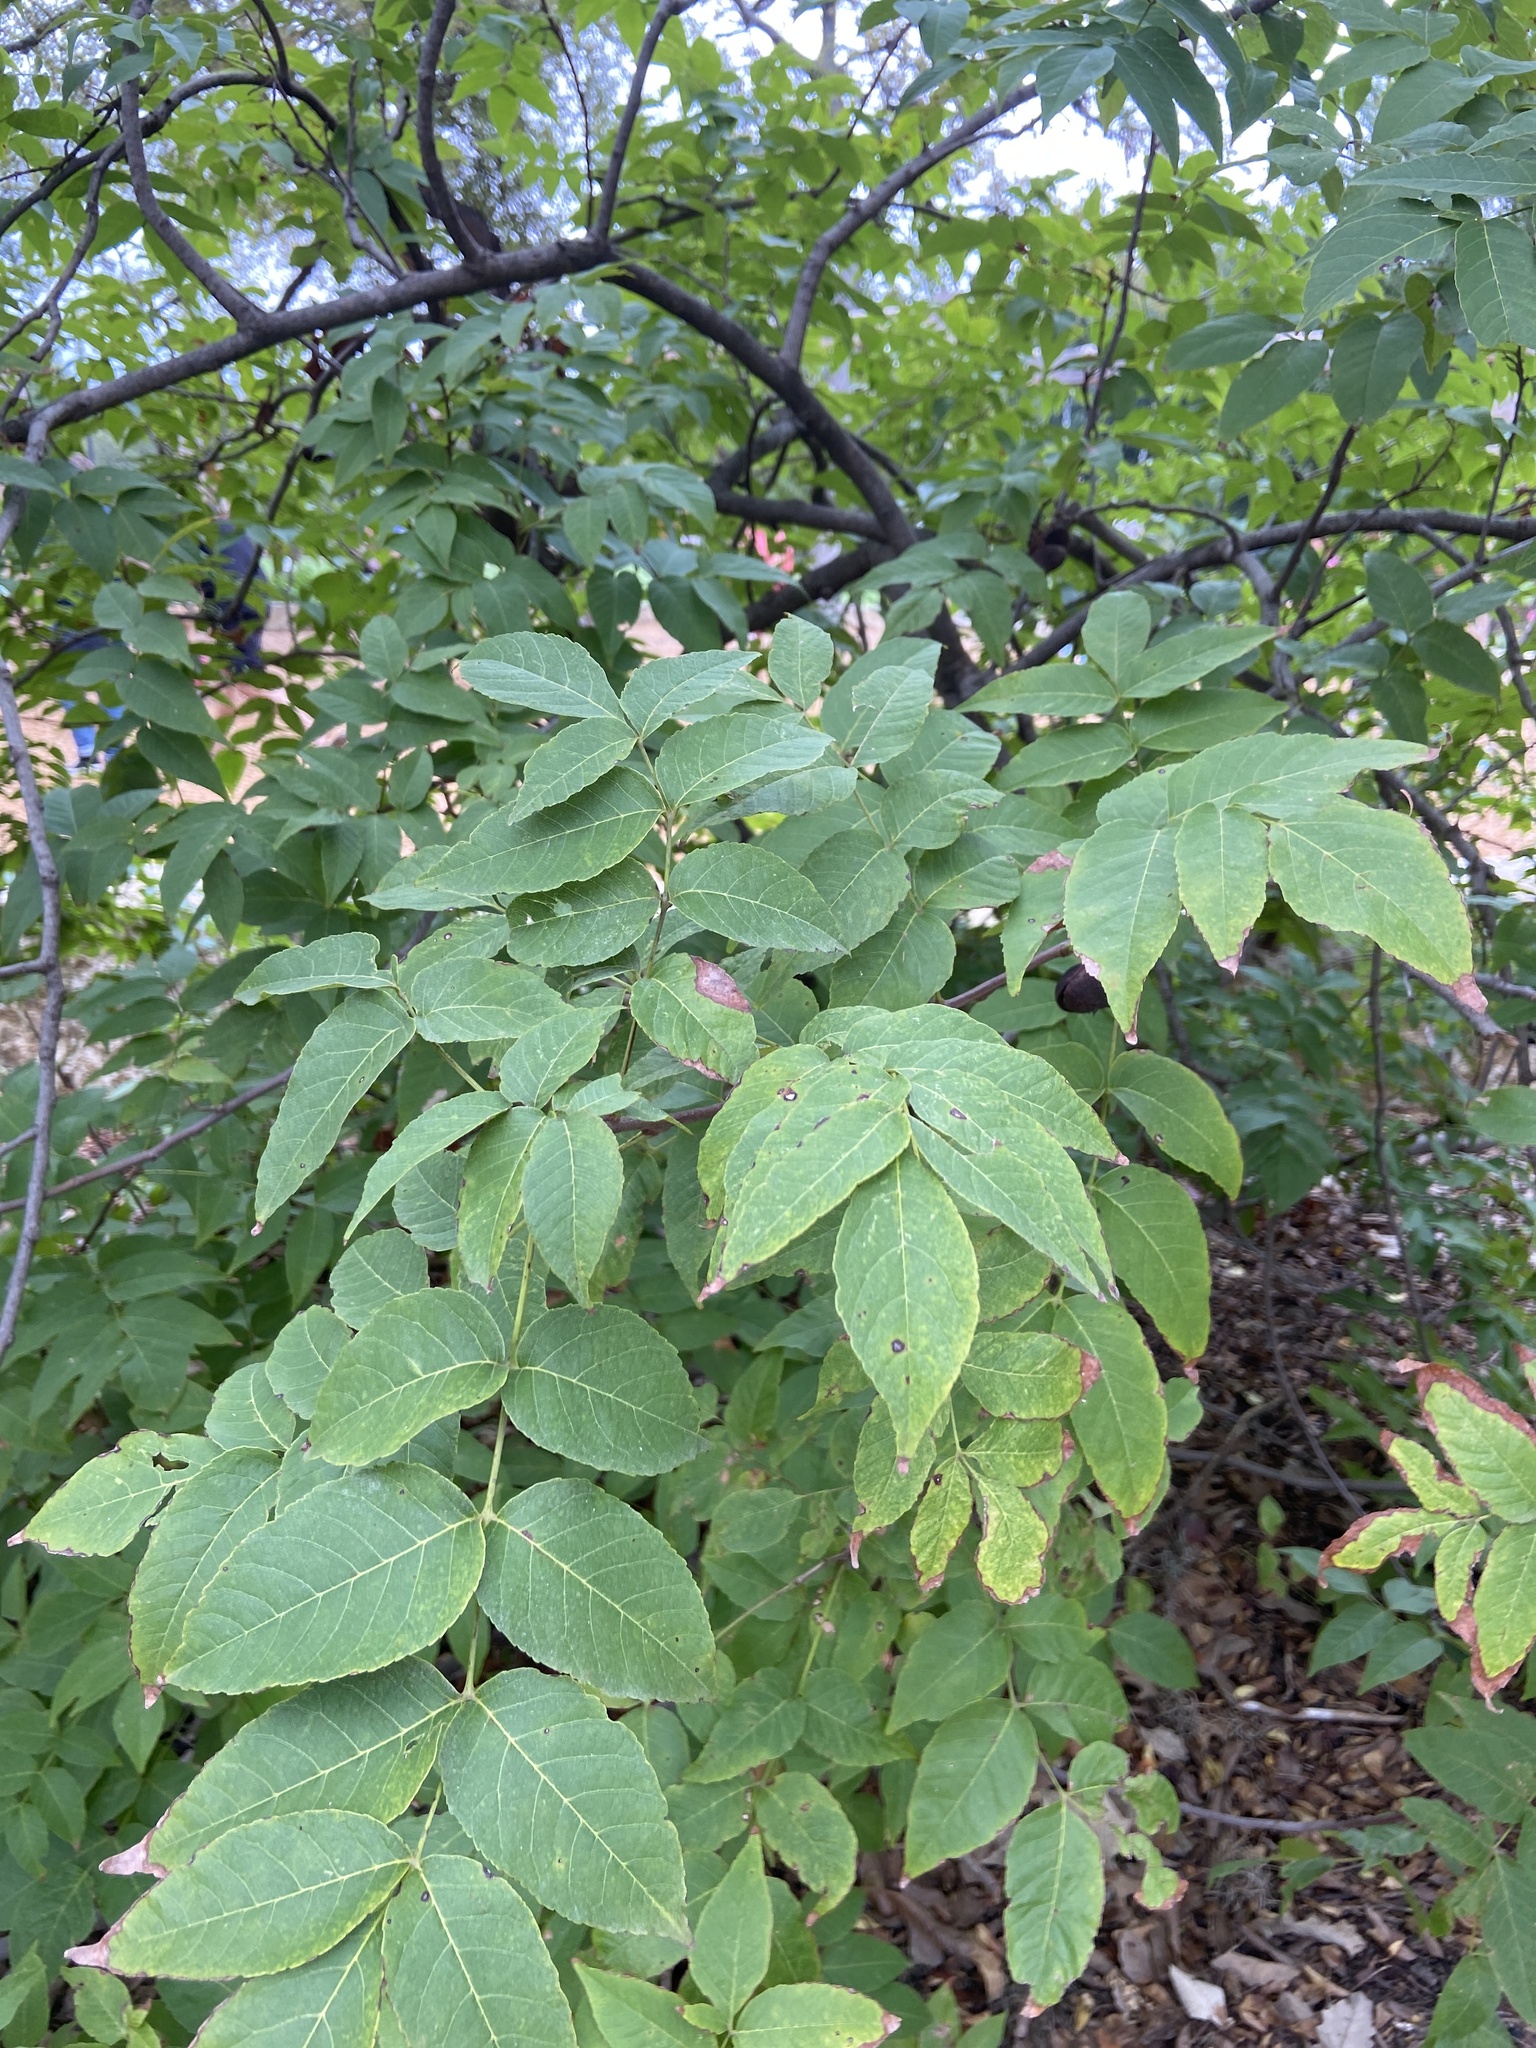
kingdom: Plantae
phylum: Tracheophyta
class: Magnoliopsida
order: Sapindales
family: Sapindaceae
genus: Ungnadia
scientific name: Ungnadia speciosa
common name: Texas-buckeye
